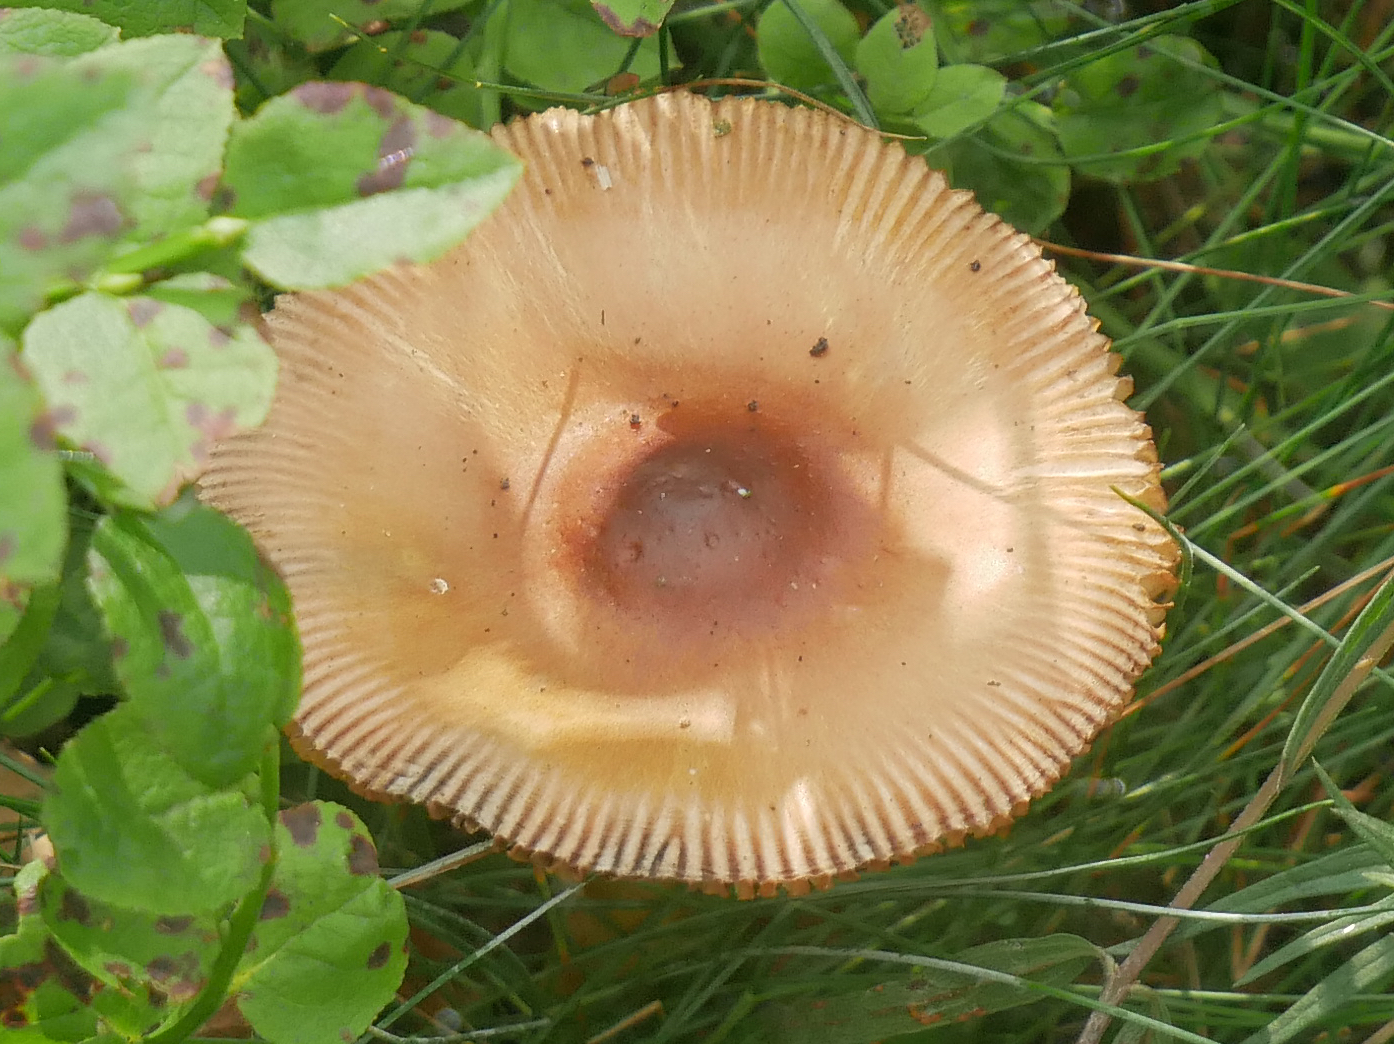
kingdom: Fungi
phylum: Basidiomycota
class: Agaricomycetes
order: Agaricales
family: Amanitaceae
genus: Amanita
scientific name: Amanita fulva
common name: Tawny grisette
